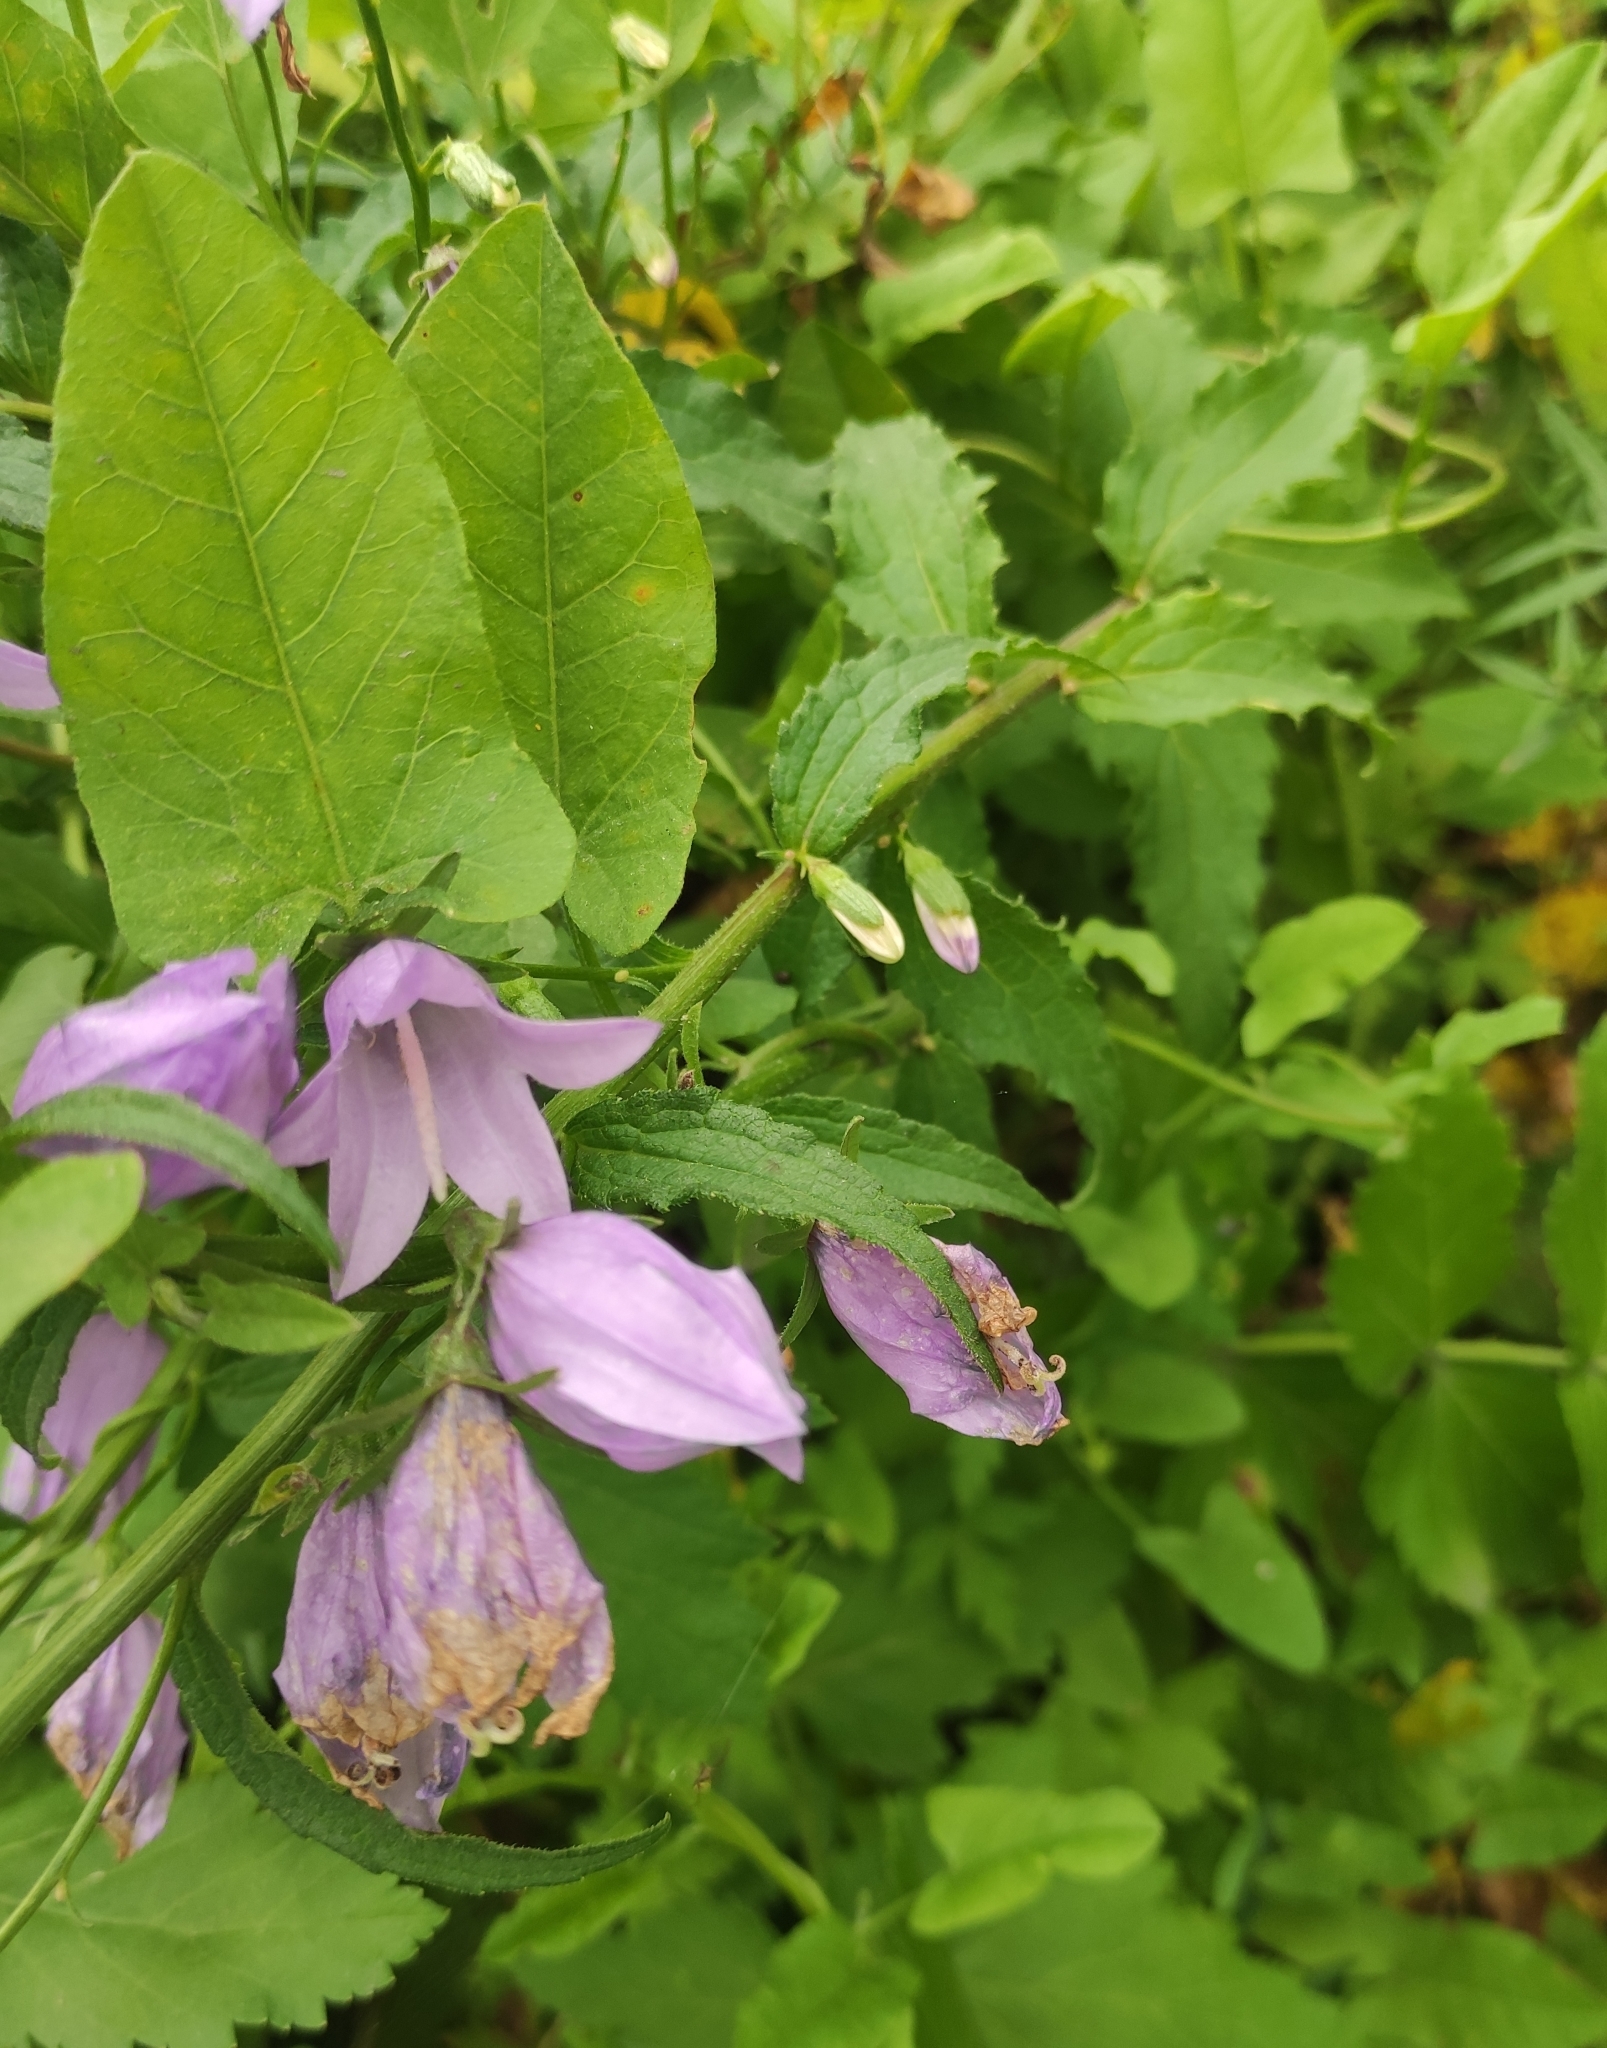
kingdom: Plantae
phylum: Tracheophyta
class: Magnoliopsida
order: Asterales
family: Campanulaceae
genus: Campanula
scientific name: Campanula rapunculoides
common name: Creeping bellflower
